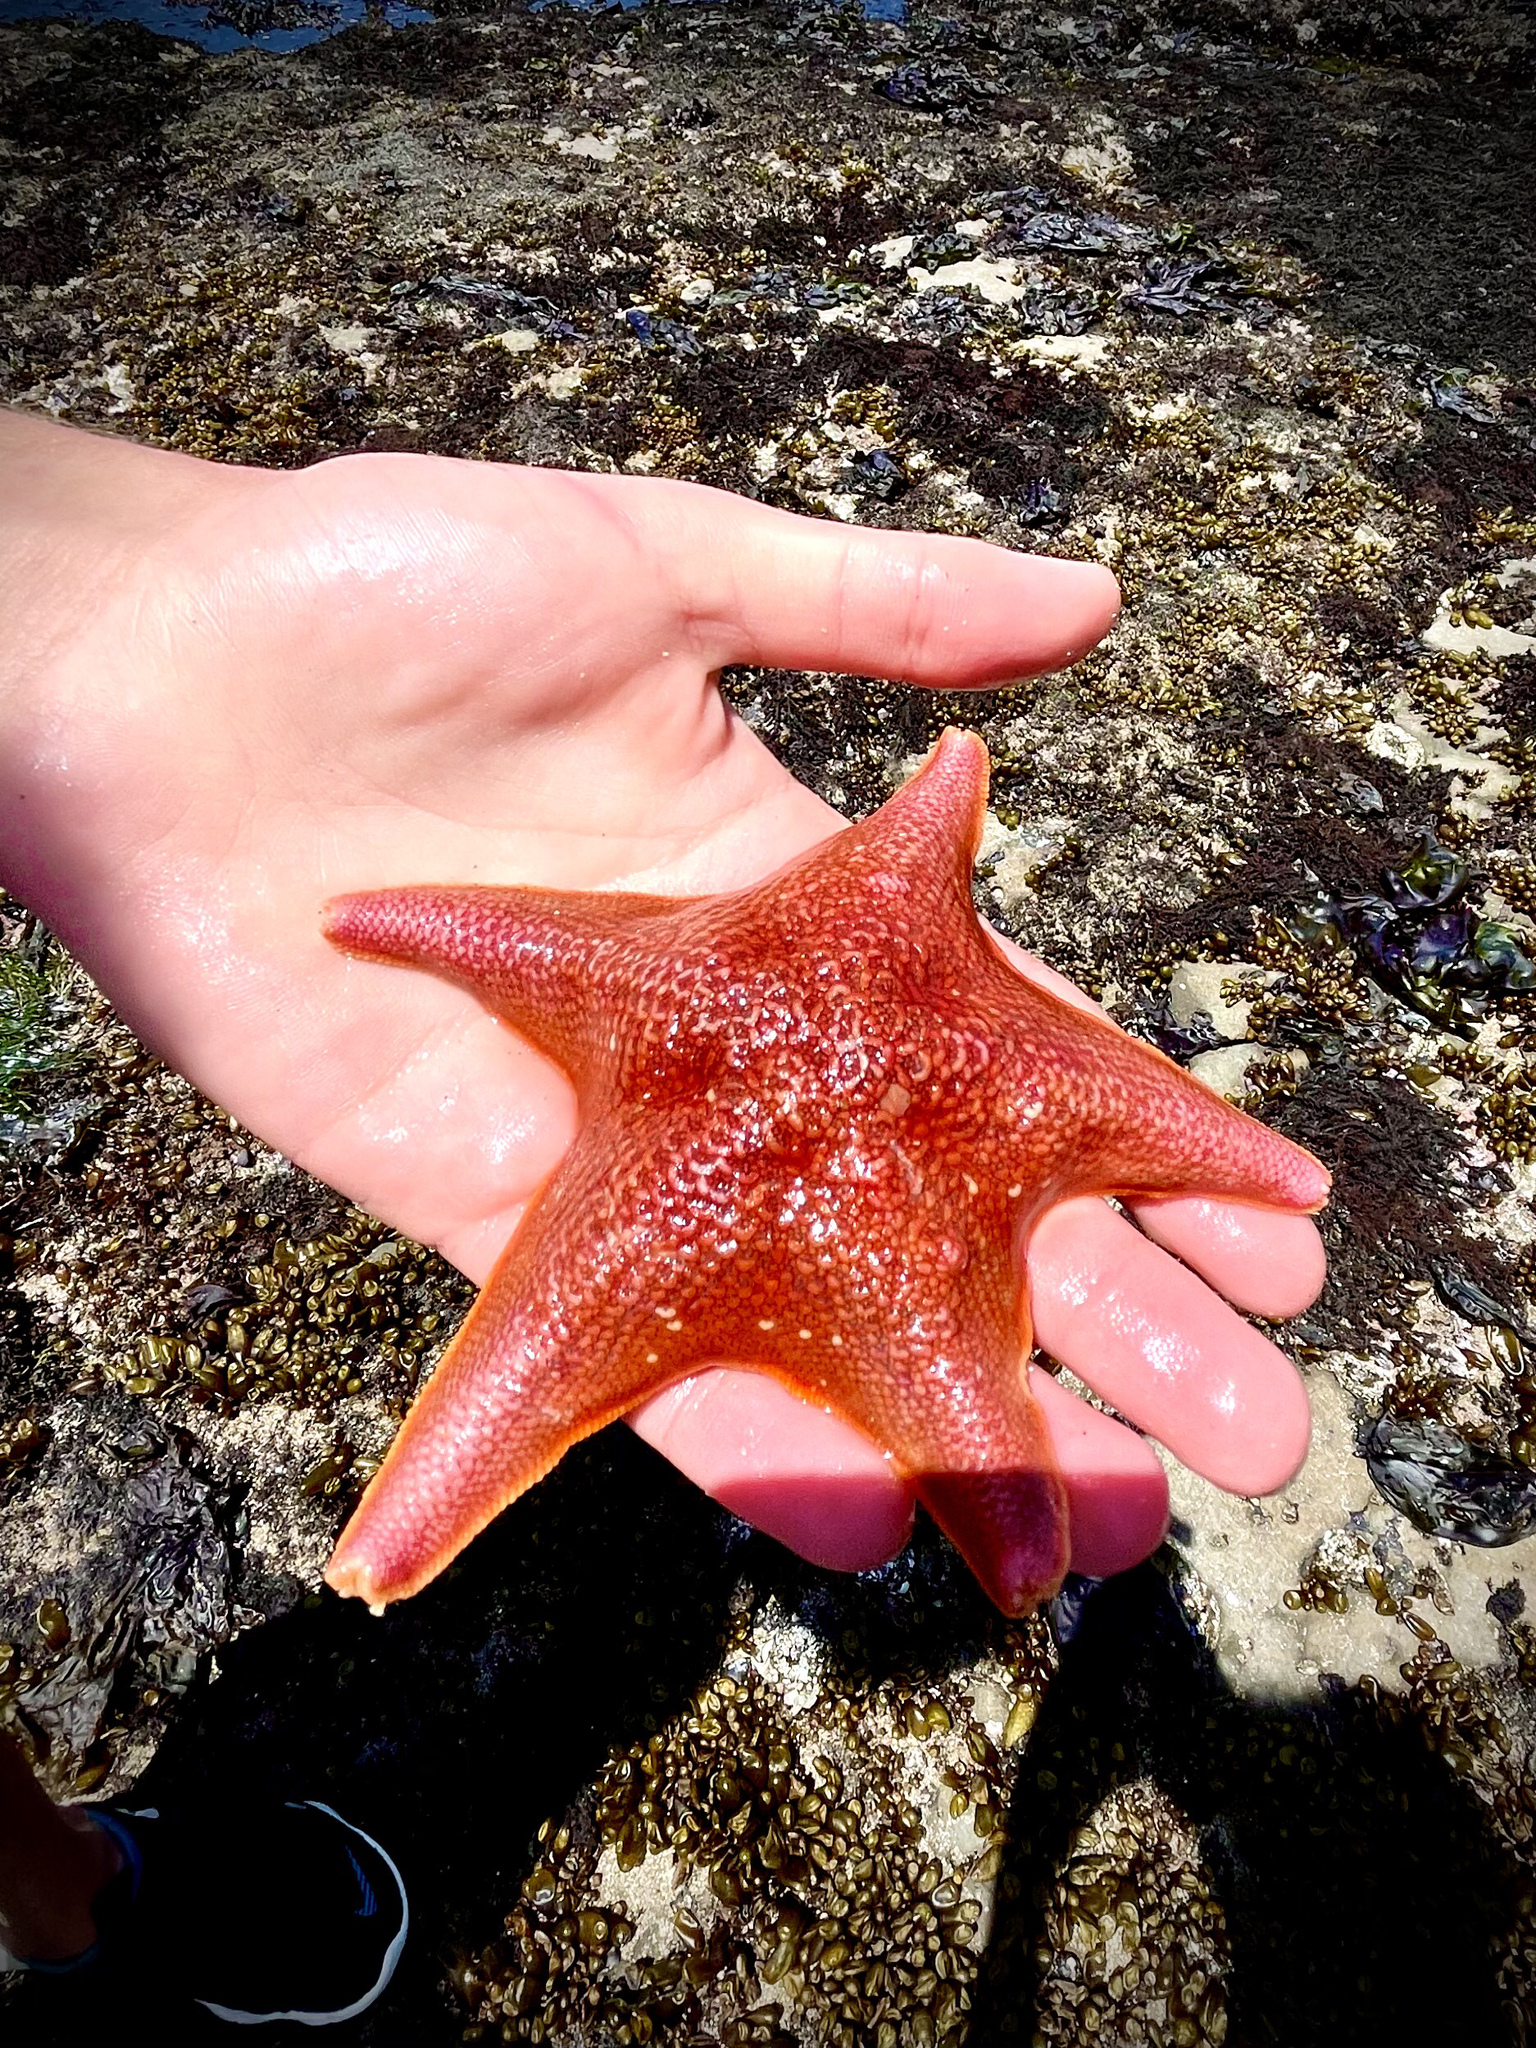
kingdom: Animalia
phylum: Echinodermata
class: Asteroidea
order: Valvatida
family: Asterinidae
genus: Patiria
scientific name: Patiria miniata
